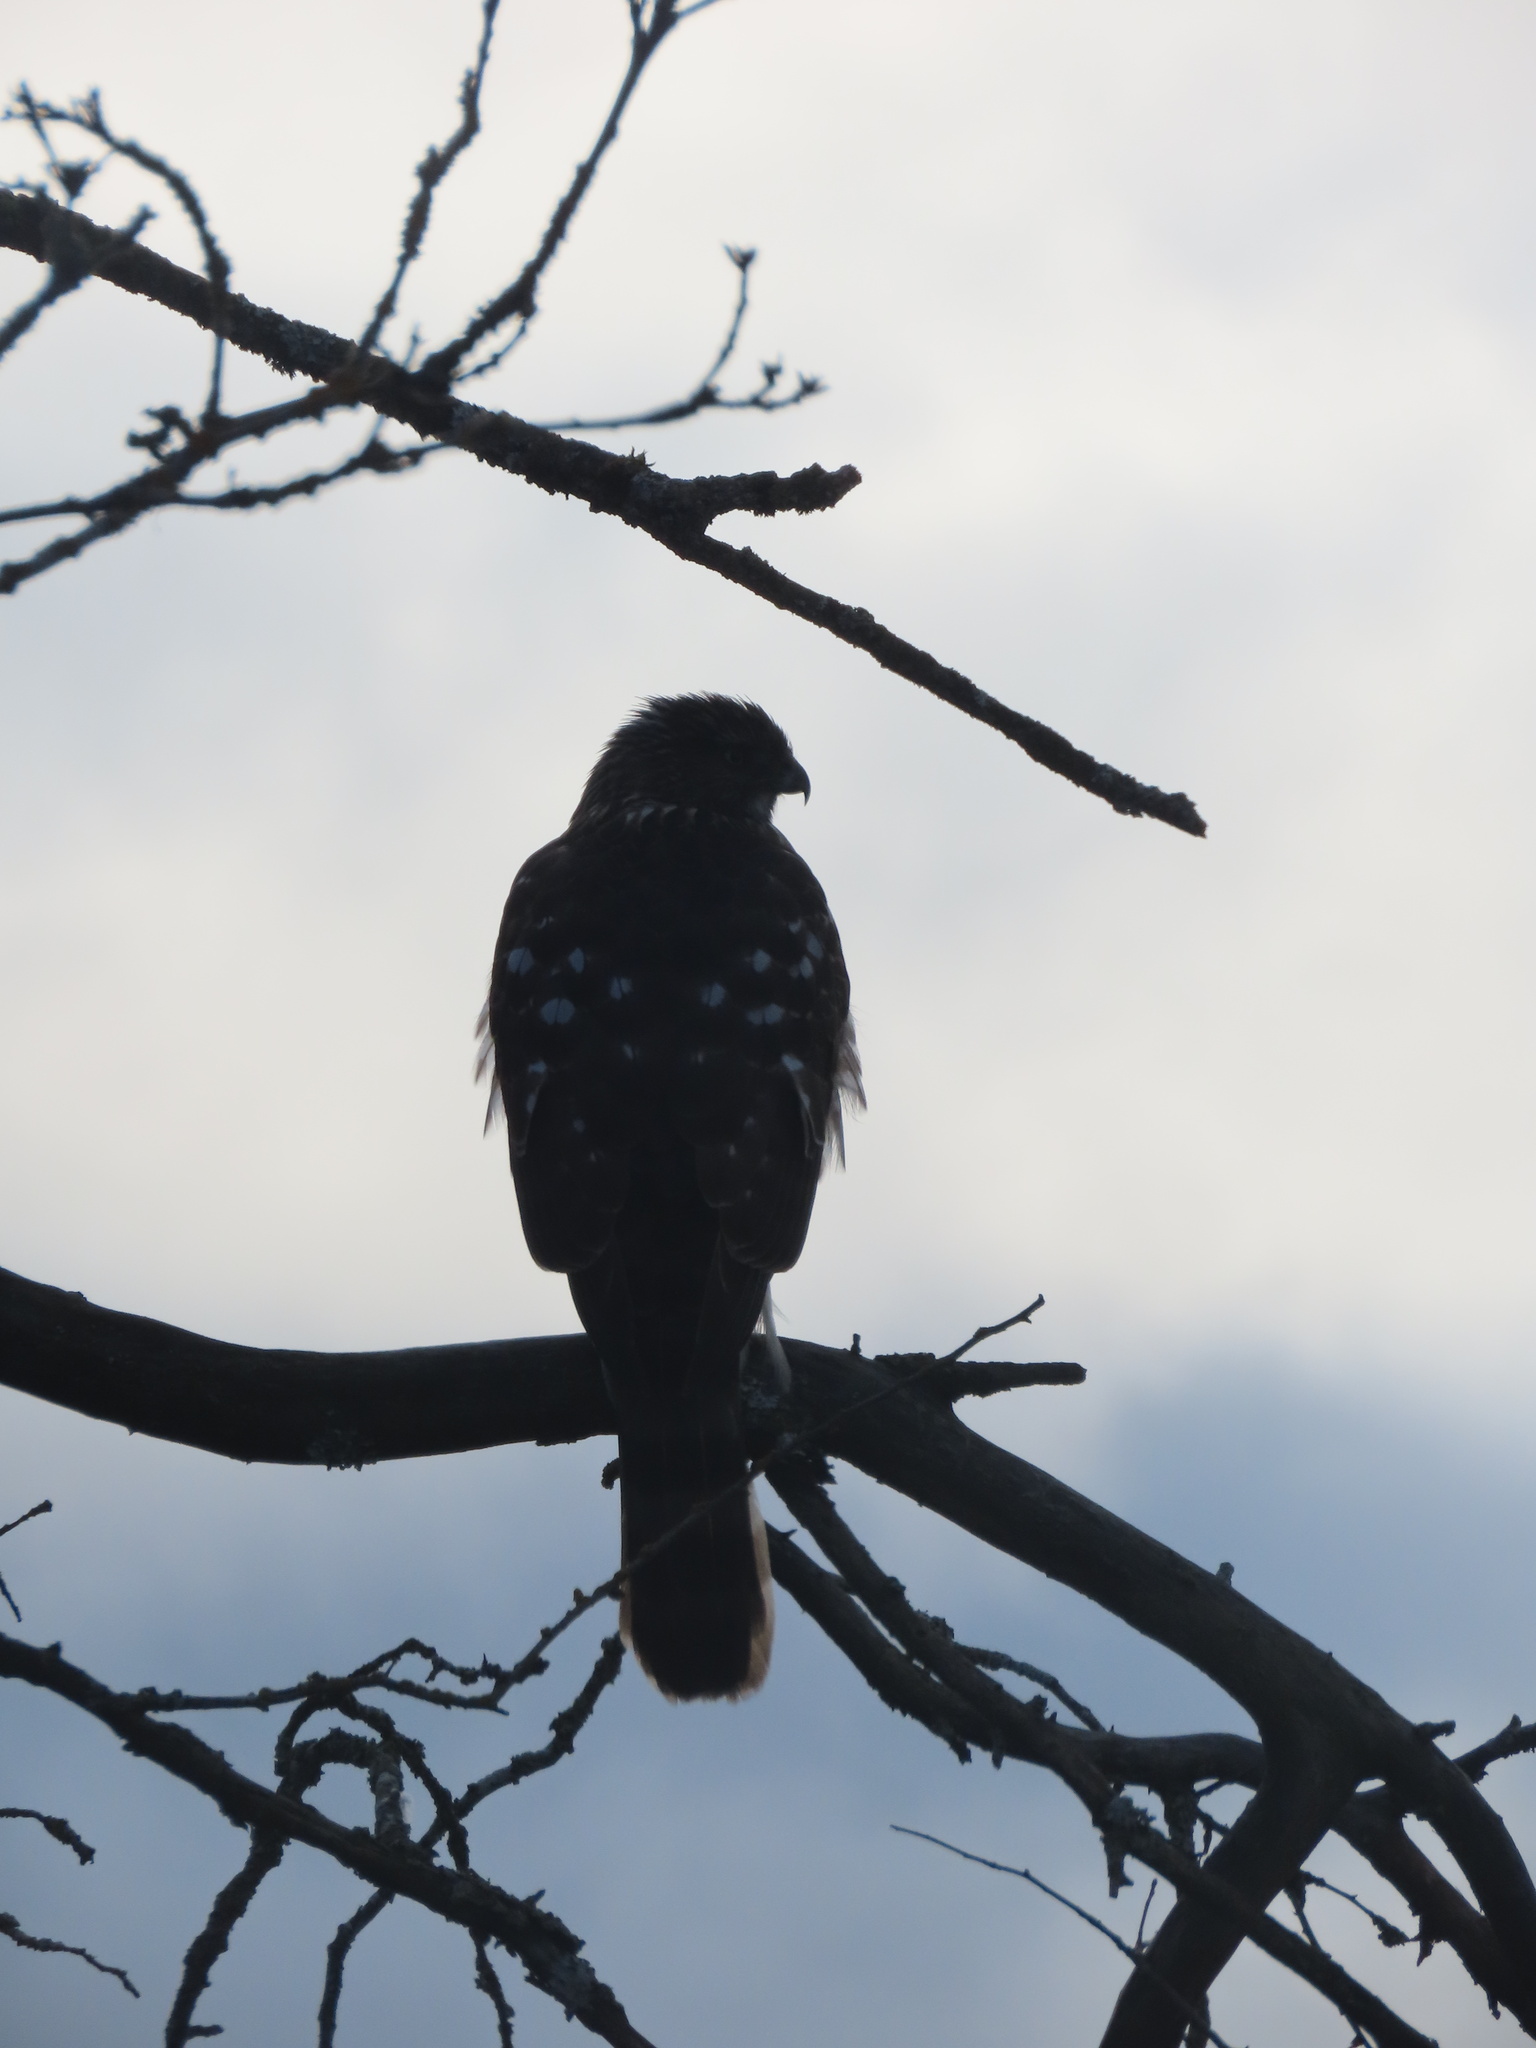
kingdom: Animalia
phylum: Chordata
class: Aves
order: Accipitriformes
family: Accipitridae
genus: Accipiter
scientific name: Accipiter cooperii
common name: Cooper's hawk
